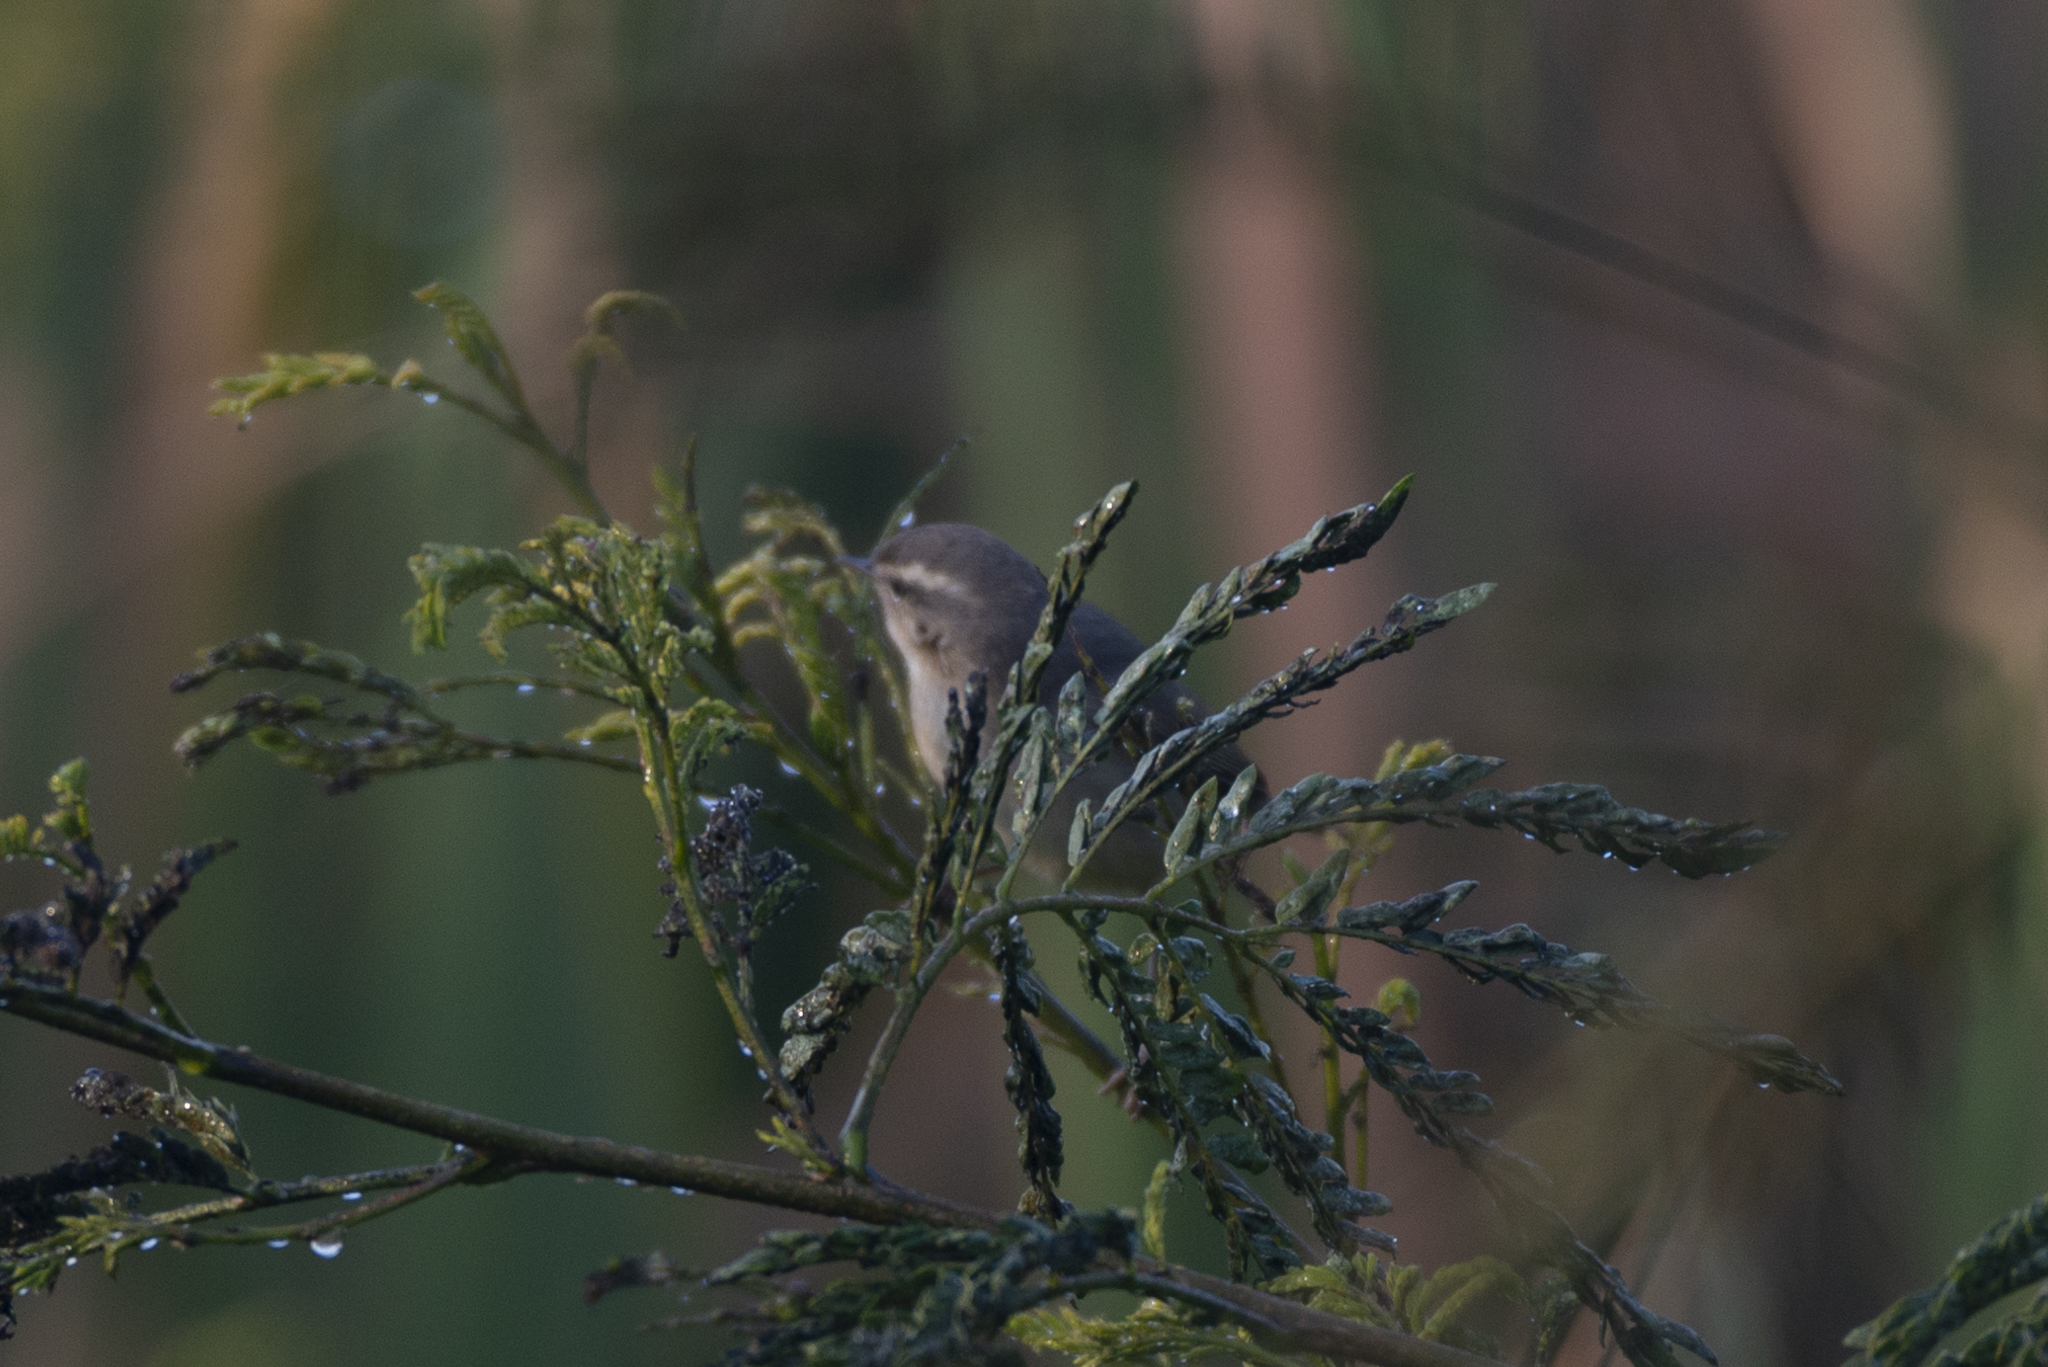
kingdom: Animalia
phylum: Chordata
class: Aves
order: Passeriformes
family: Phylloscopidae
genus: Phylloscopus
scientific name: Phylloscopus fuscatus
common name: Dusky warbler
